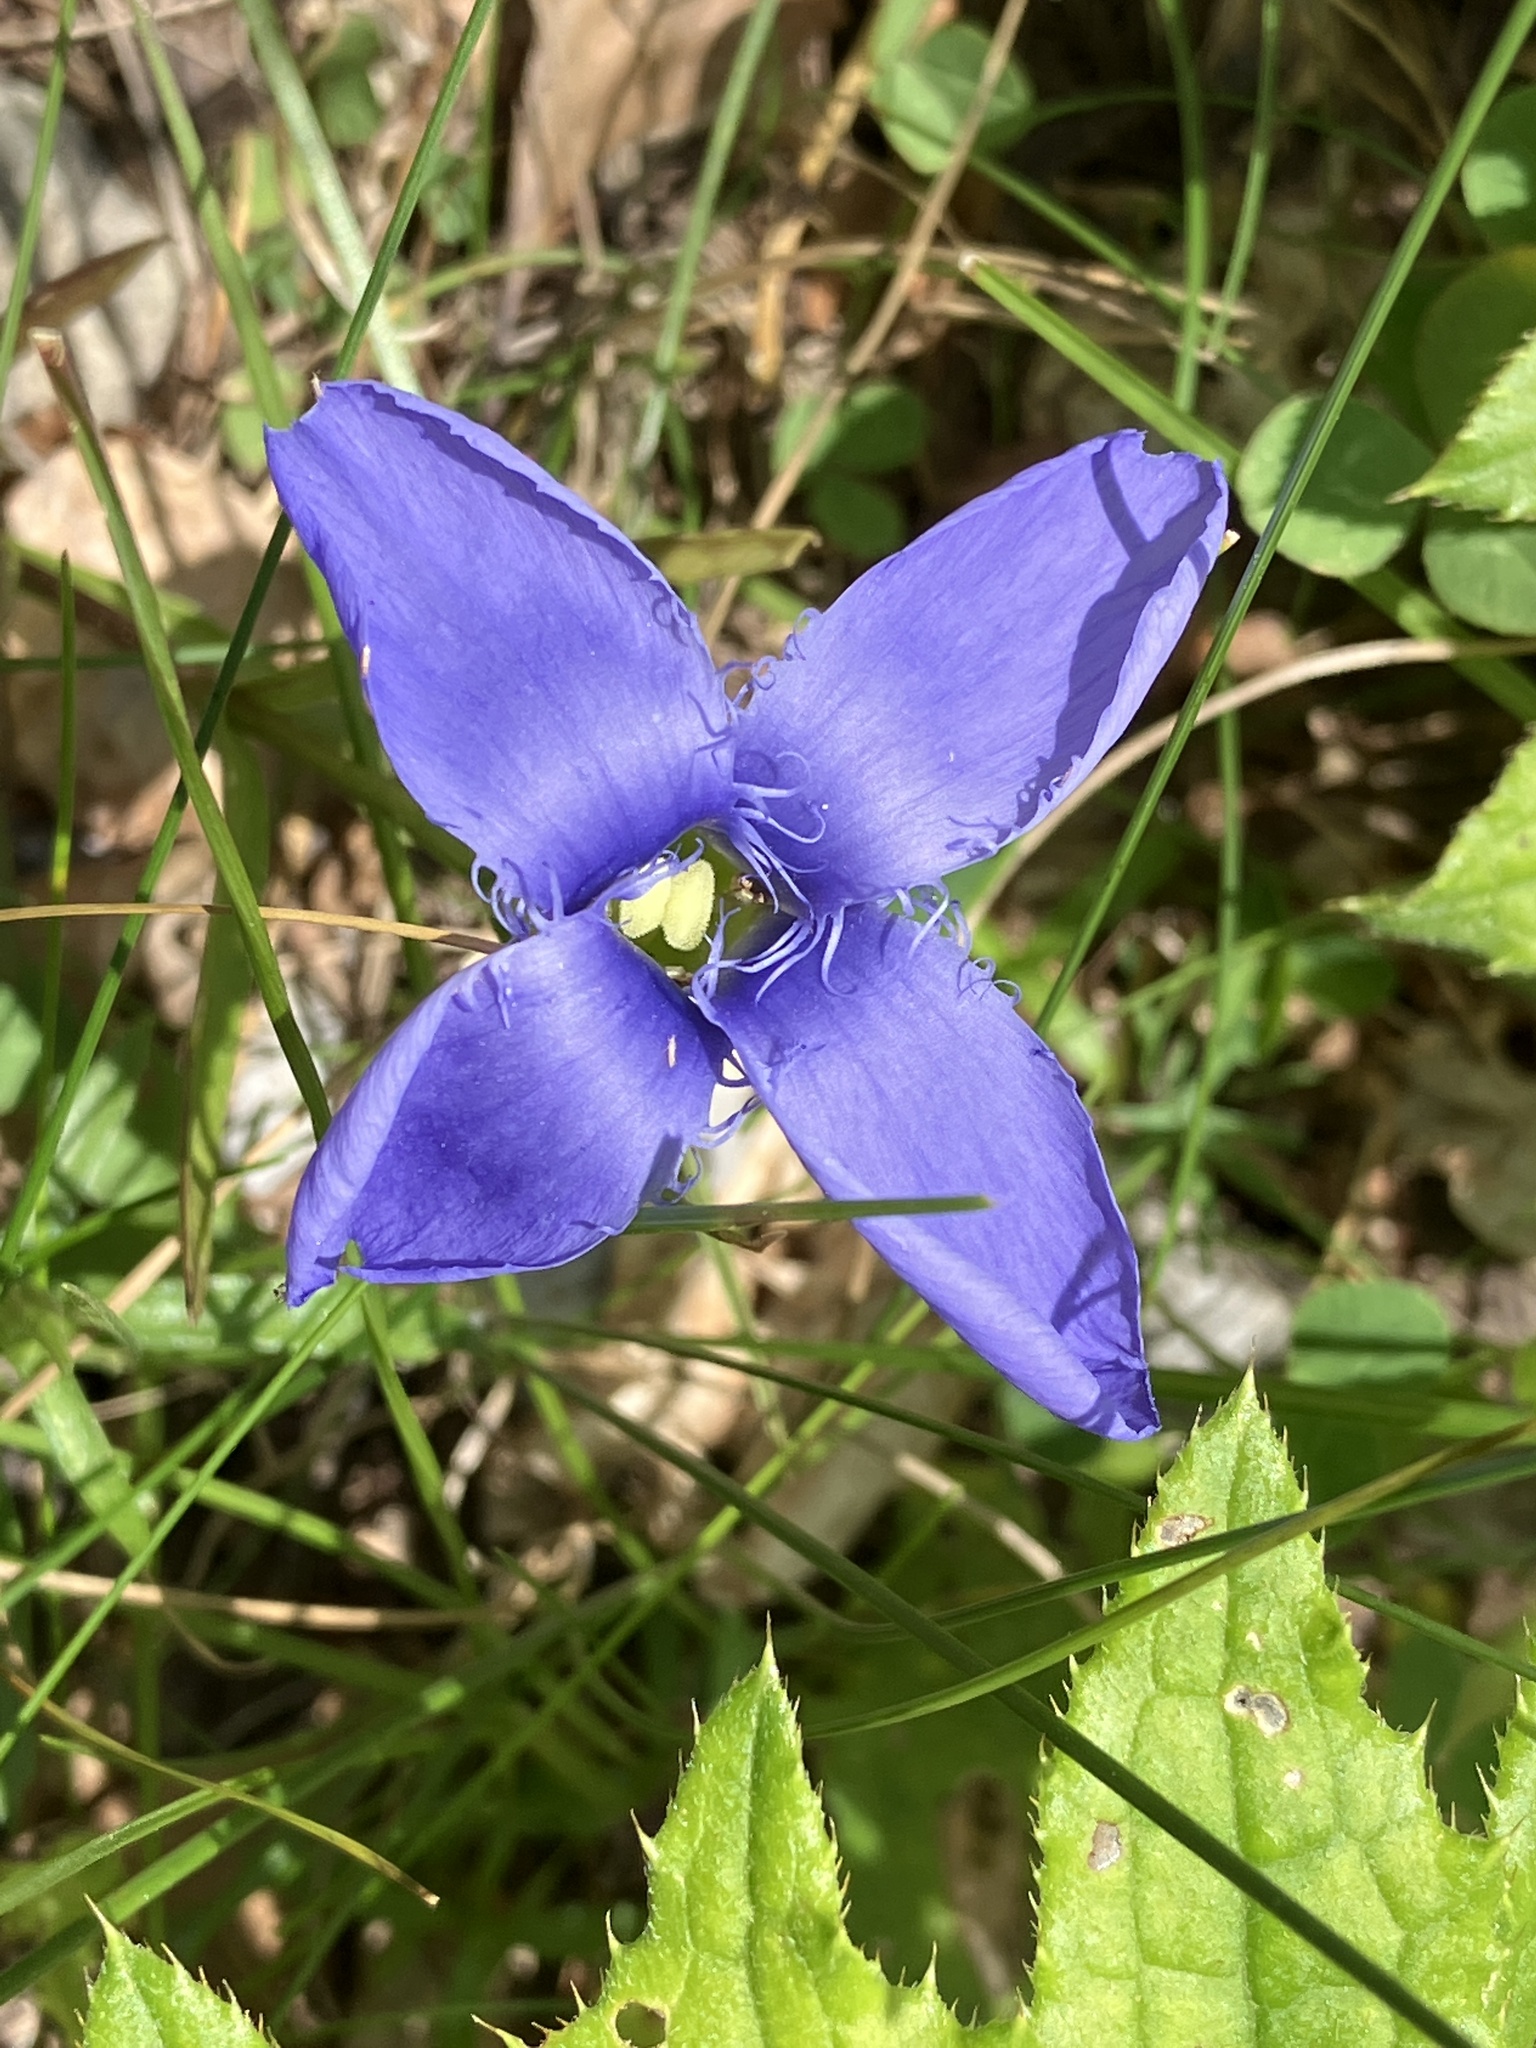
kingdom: Plantae
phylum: Tracheophyta
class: Magnoliopsida
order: Gentianales
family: Gentianaceae
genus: Gentianopsis
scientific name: Gentianopsis ciliata
